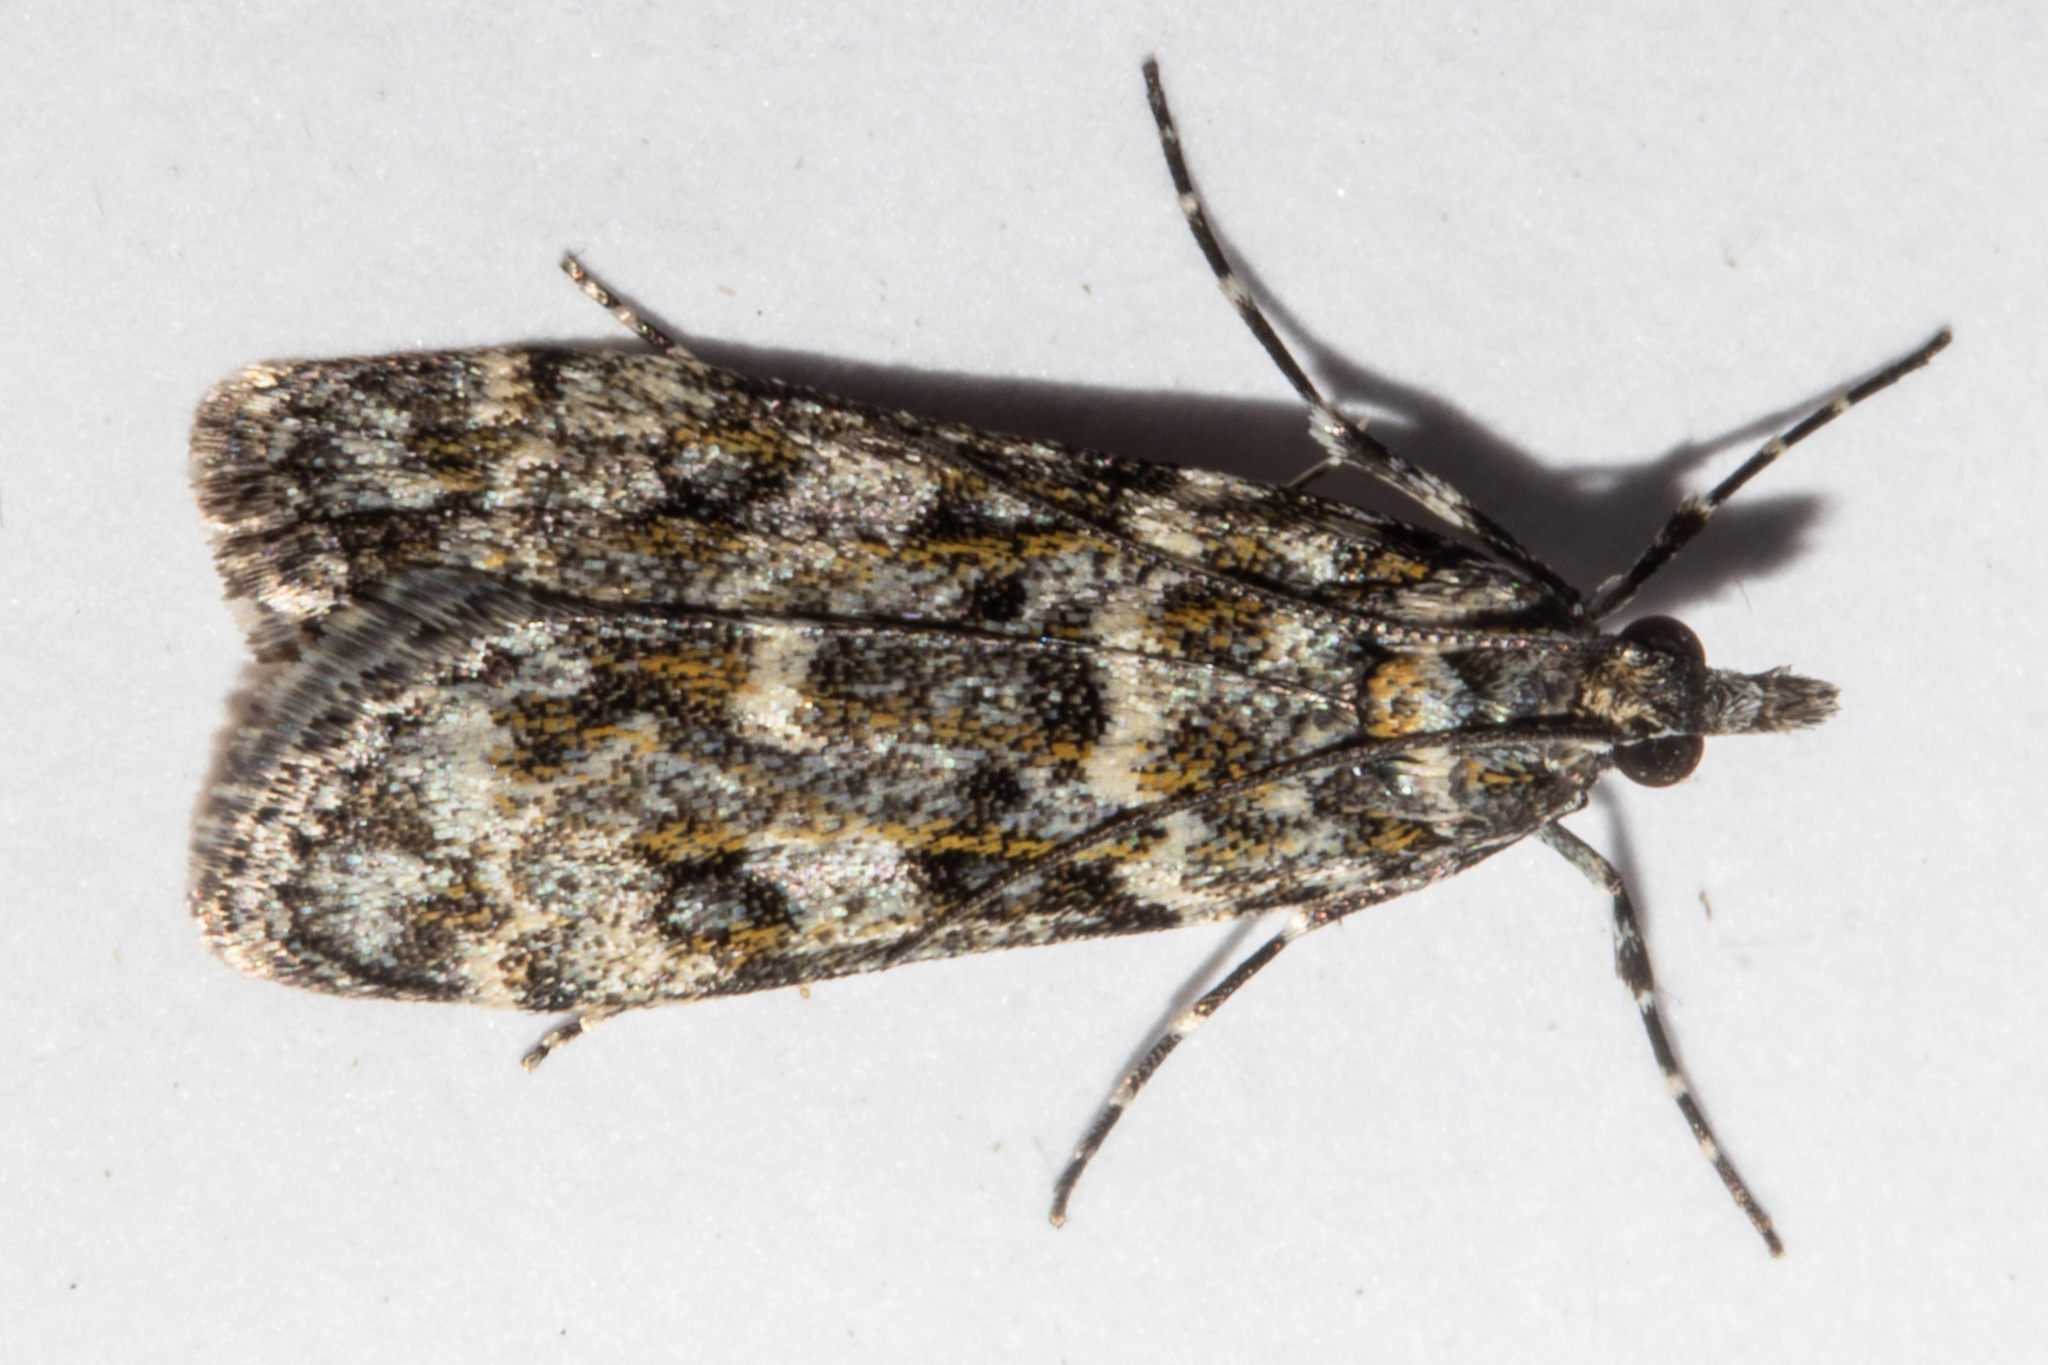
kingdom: Animalia
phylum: Arthropoda
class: Insecta
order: Lepidoptera
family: Crambidae
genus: Eudonia
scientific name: Eudonia
